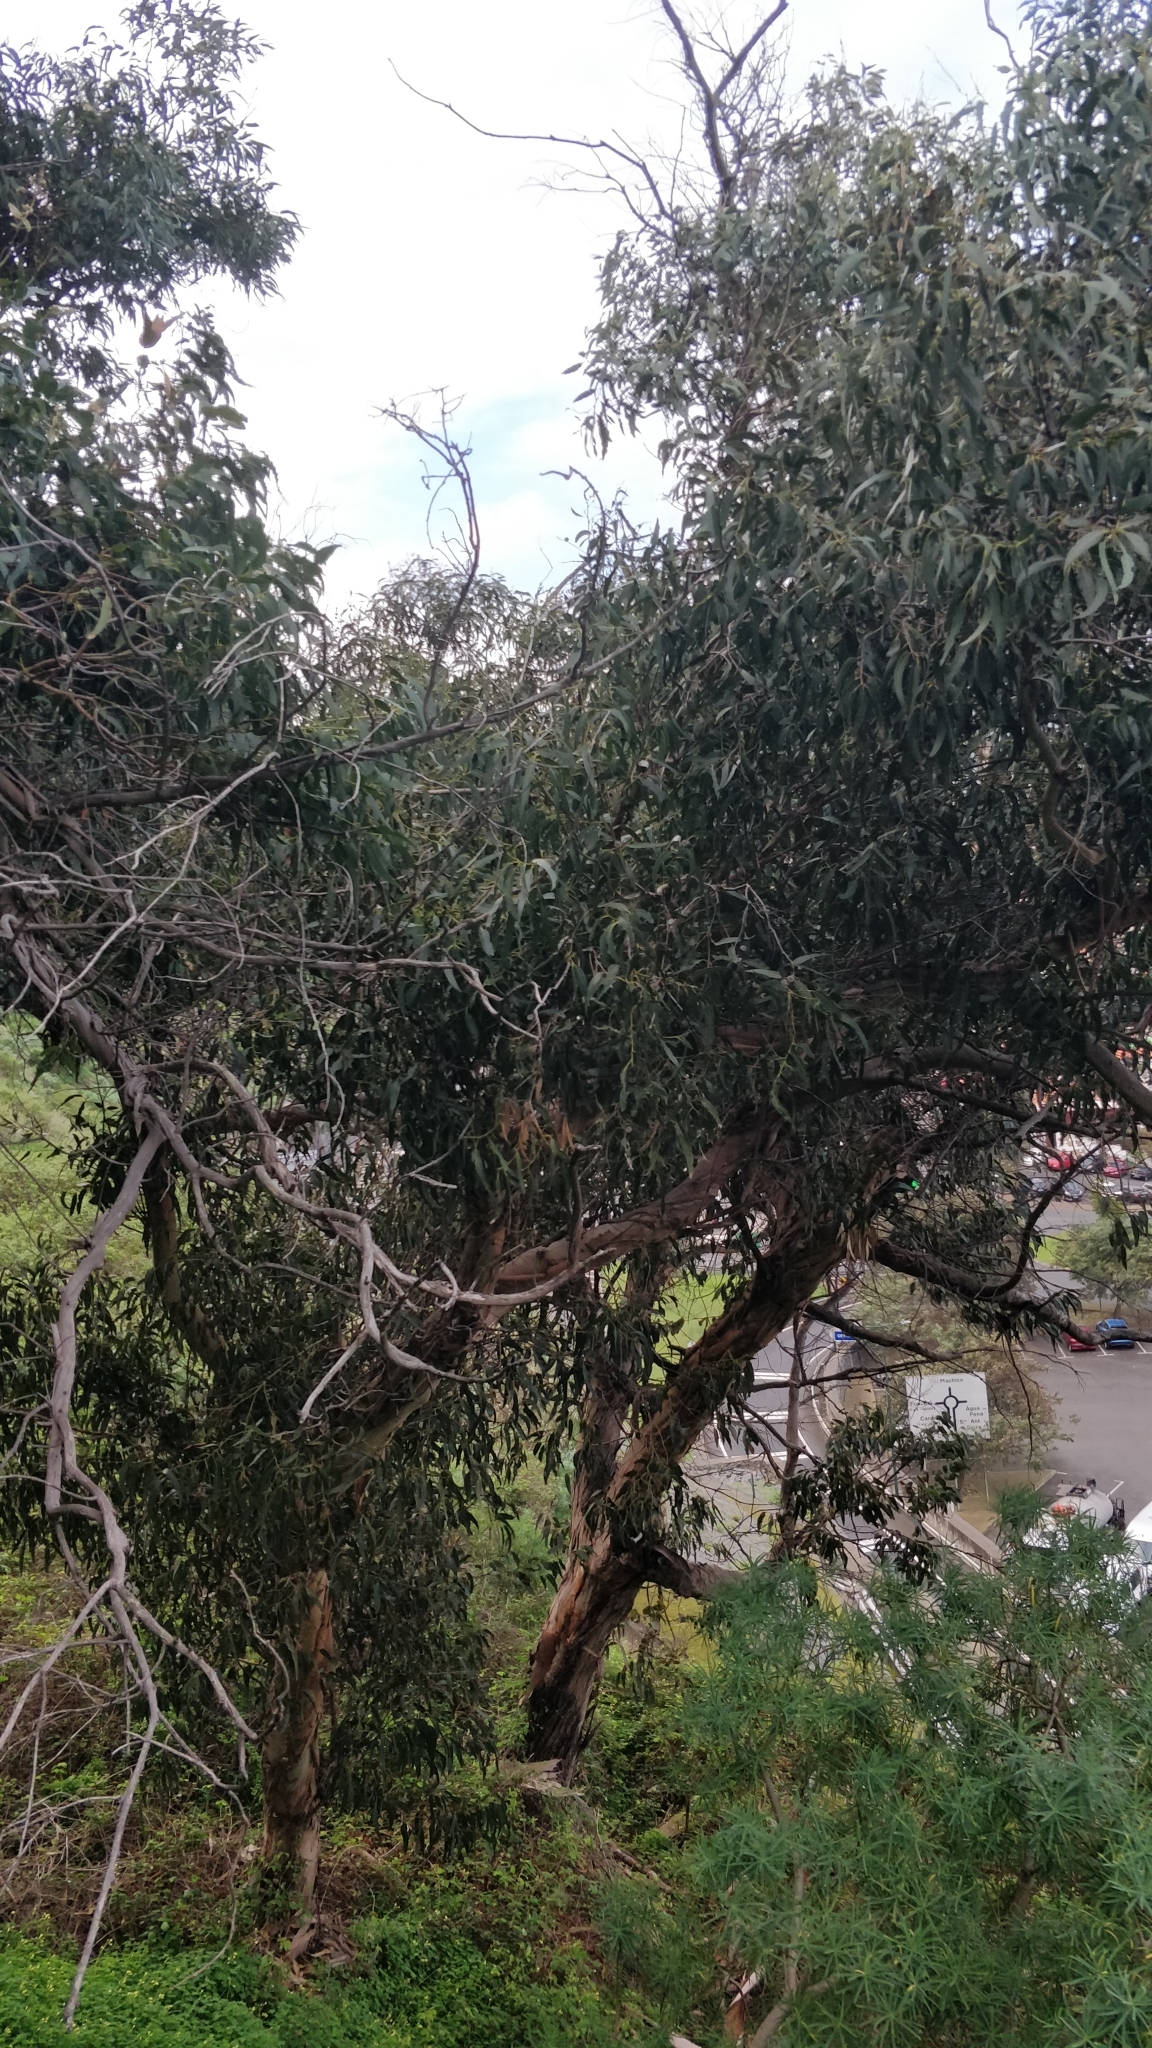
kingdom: Plantae
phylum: Tracheophyta
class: Magnoliopsida
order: Myrtales
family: Myrtaceae
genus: Eucalyptus
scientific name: Eucalyptus globulus
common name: Southern blue-gum
